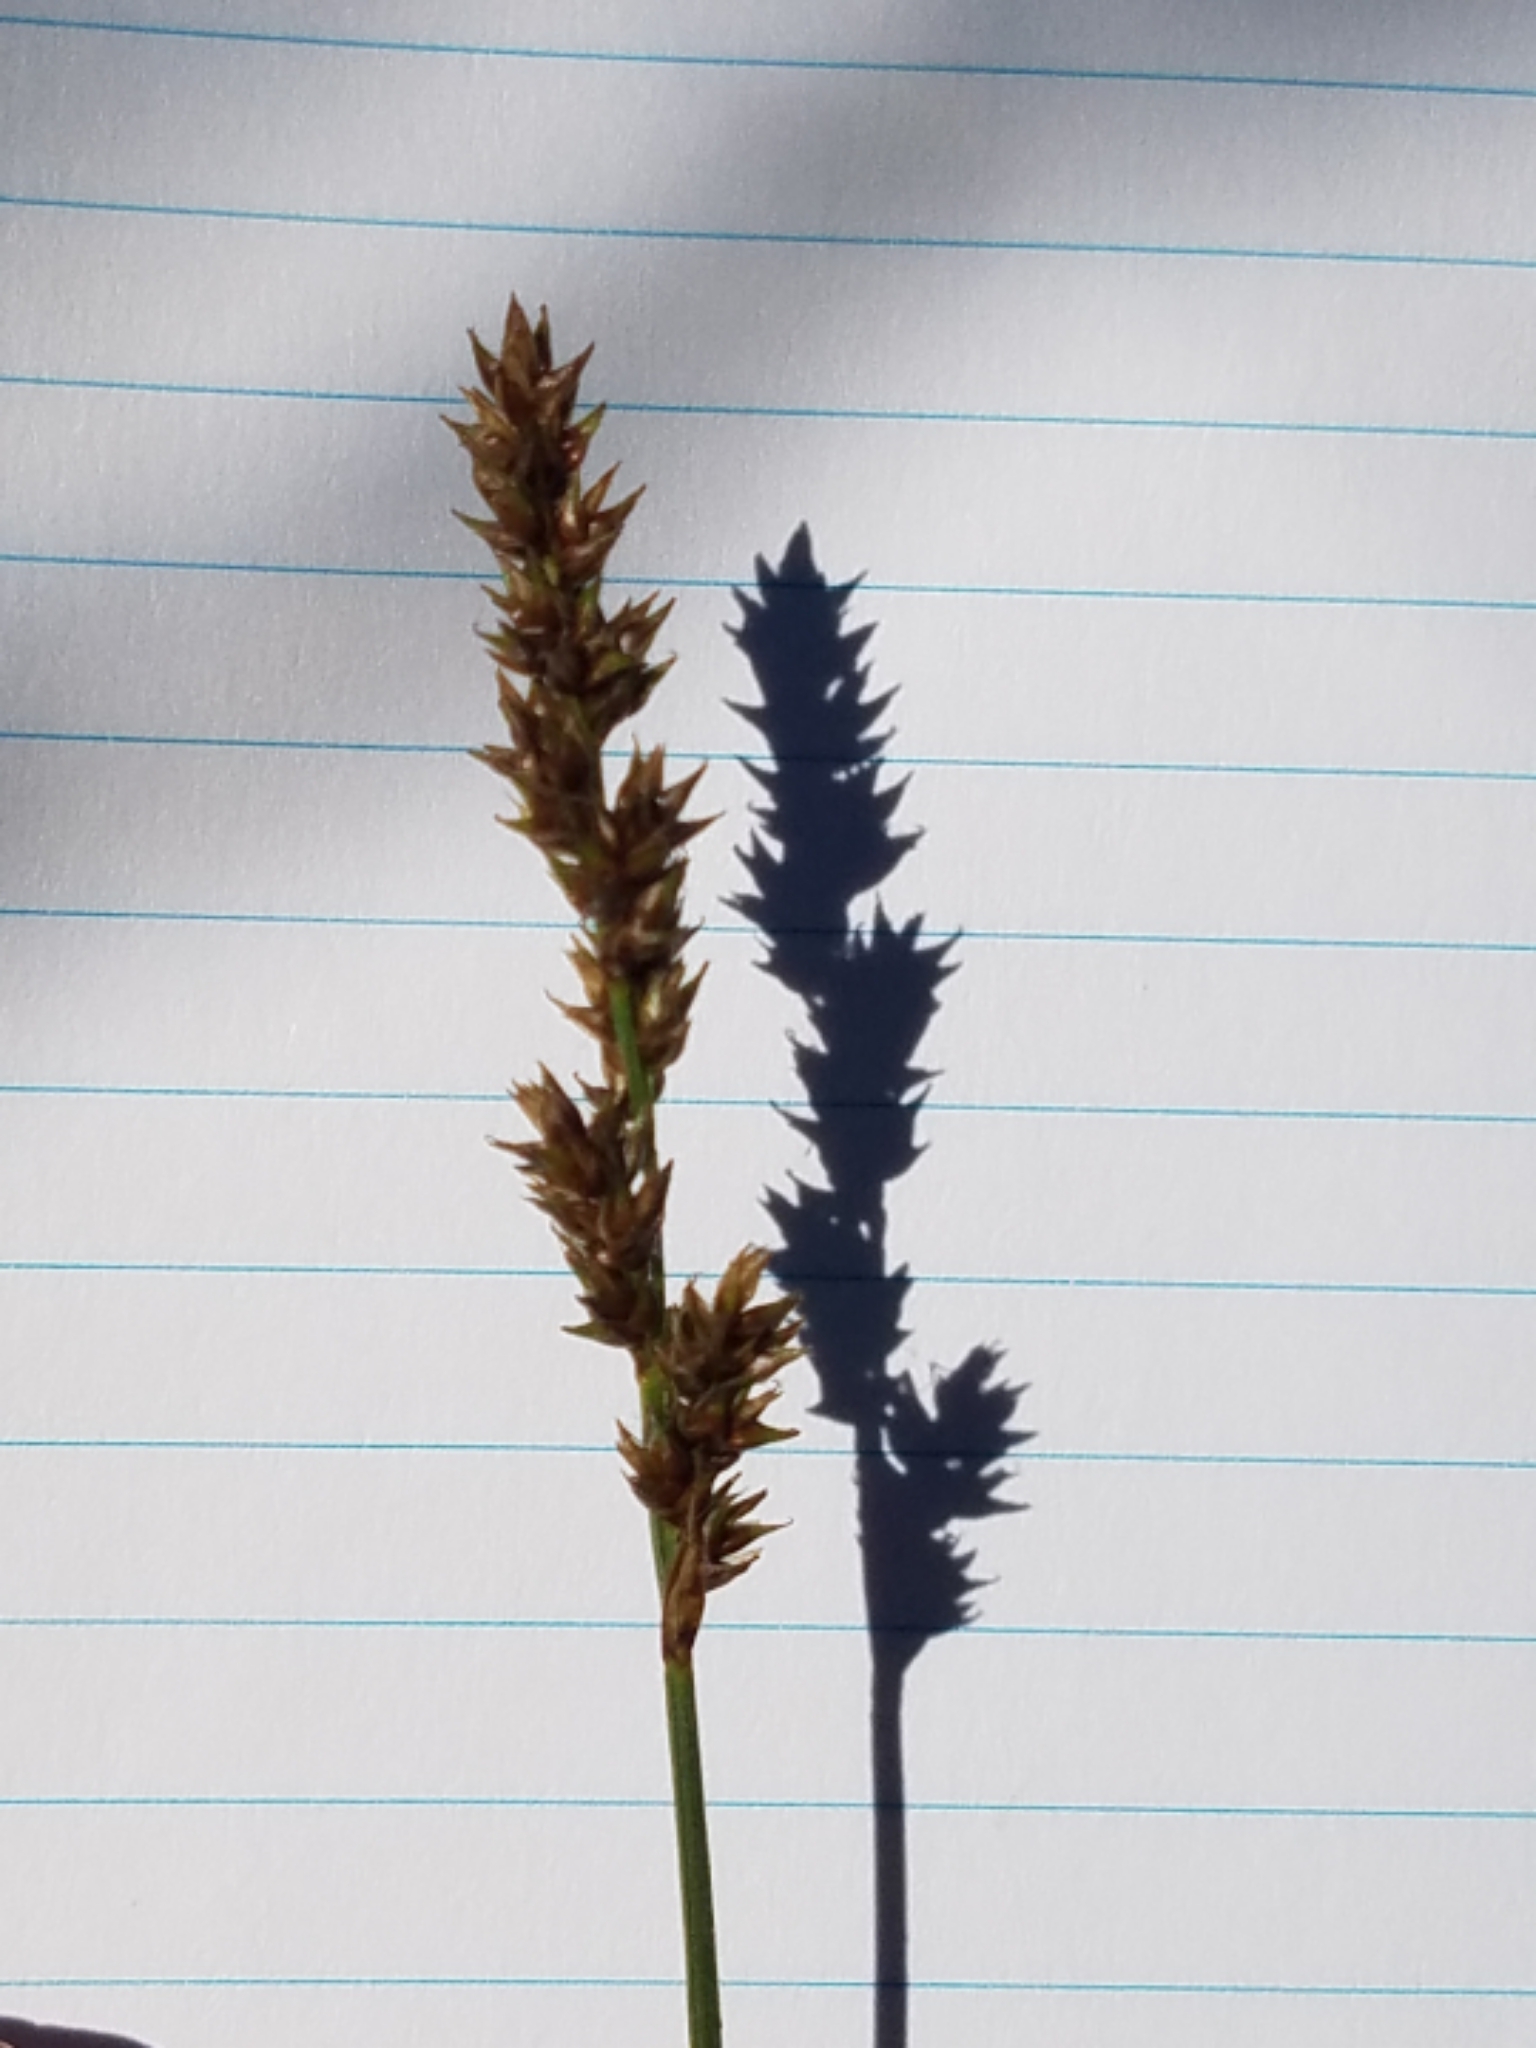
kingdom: Plantae
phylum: Tracheophyta
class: Liliopsida
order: Poales
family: Cyperaceae
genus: Carex
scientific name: Carex diandra
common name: Lesser tussock-sedge
